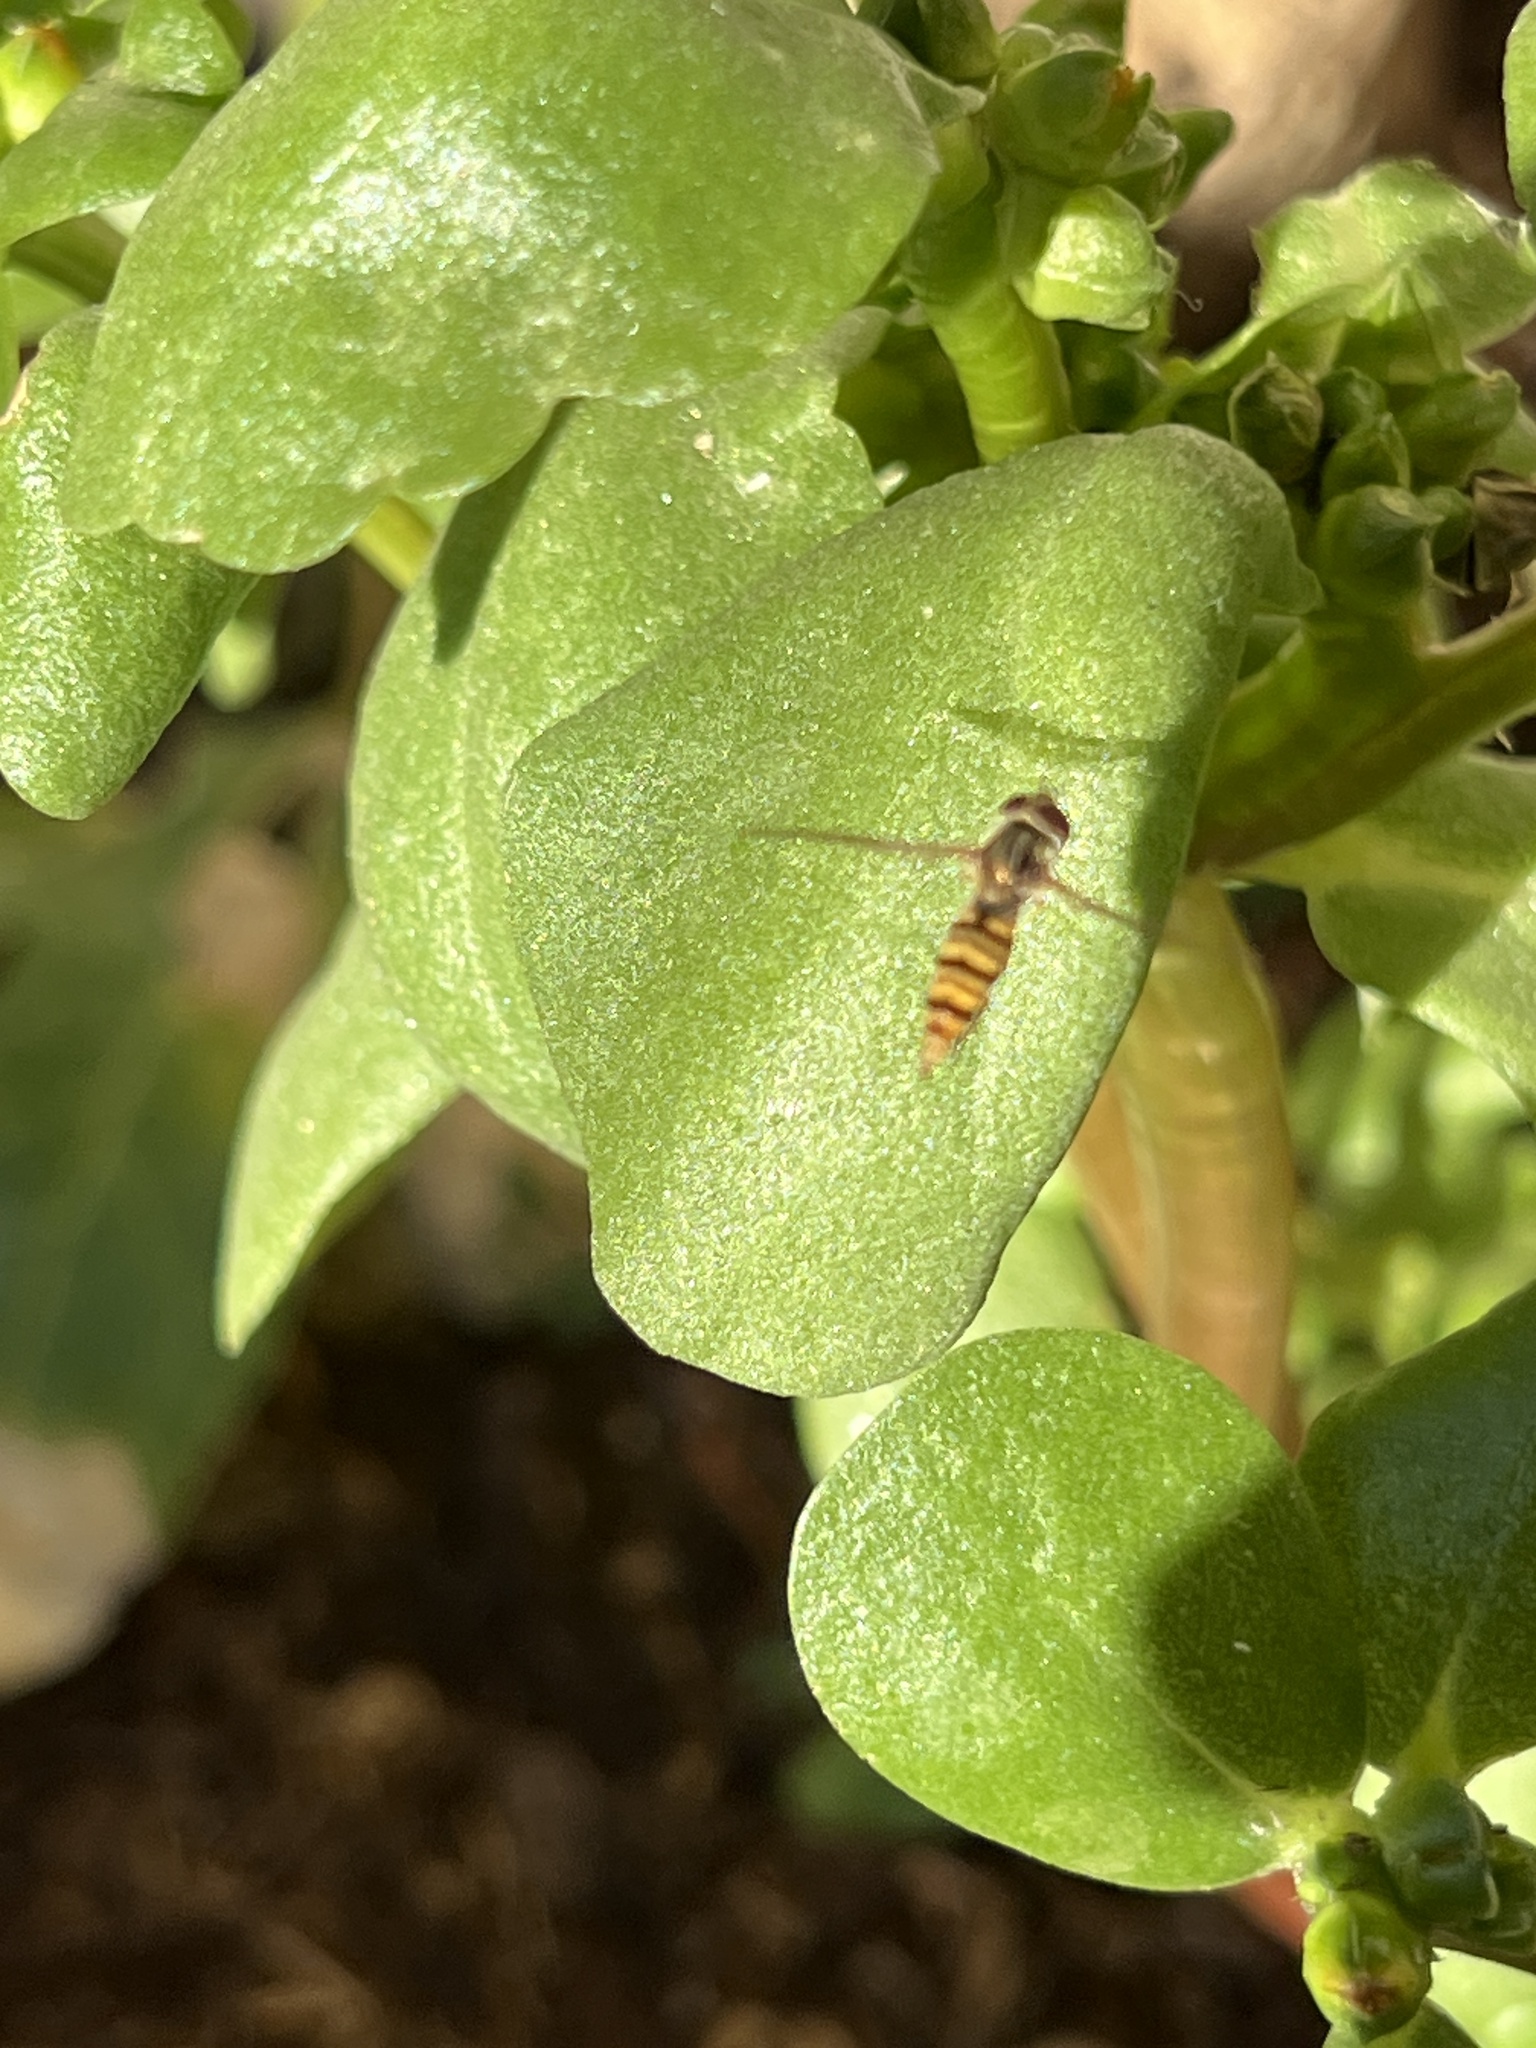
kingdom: Animalia
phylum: Arthropoda
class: Insecta
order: Diptera
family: Syrphidae
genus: Episyrphus
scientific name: Episyrphus balteatus
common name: Marmalade hoverfly
